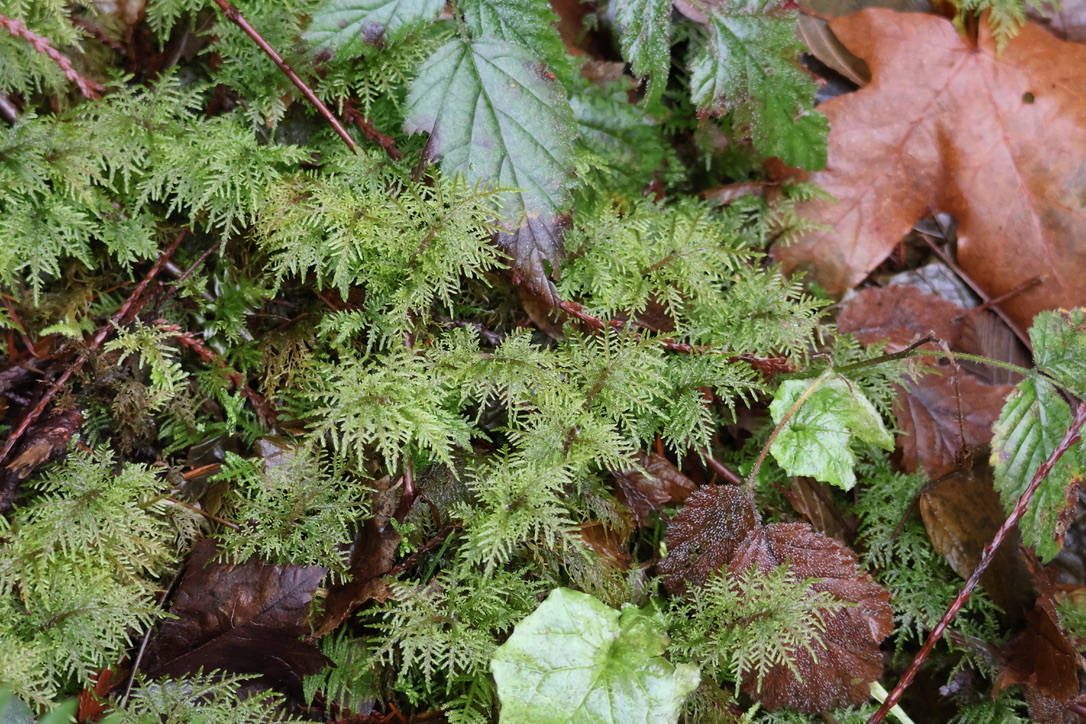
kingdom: Plantae
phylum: Bryophyta
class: Bryopsida
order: Hypnales
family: Hylocomiaceae
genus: Hylocomium
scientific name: Hylocomium splendens
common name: Stairstep moss
